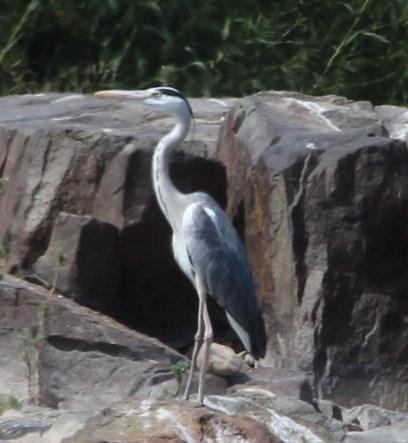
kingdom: Animalia
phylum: Chordata
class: Aves
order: Pelecaniformes
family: Ardeidae
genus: Ardea
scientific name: Ardea cinerea
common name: Grey heron
